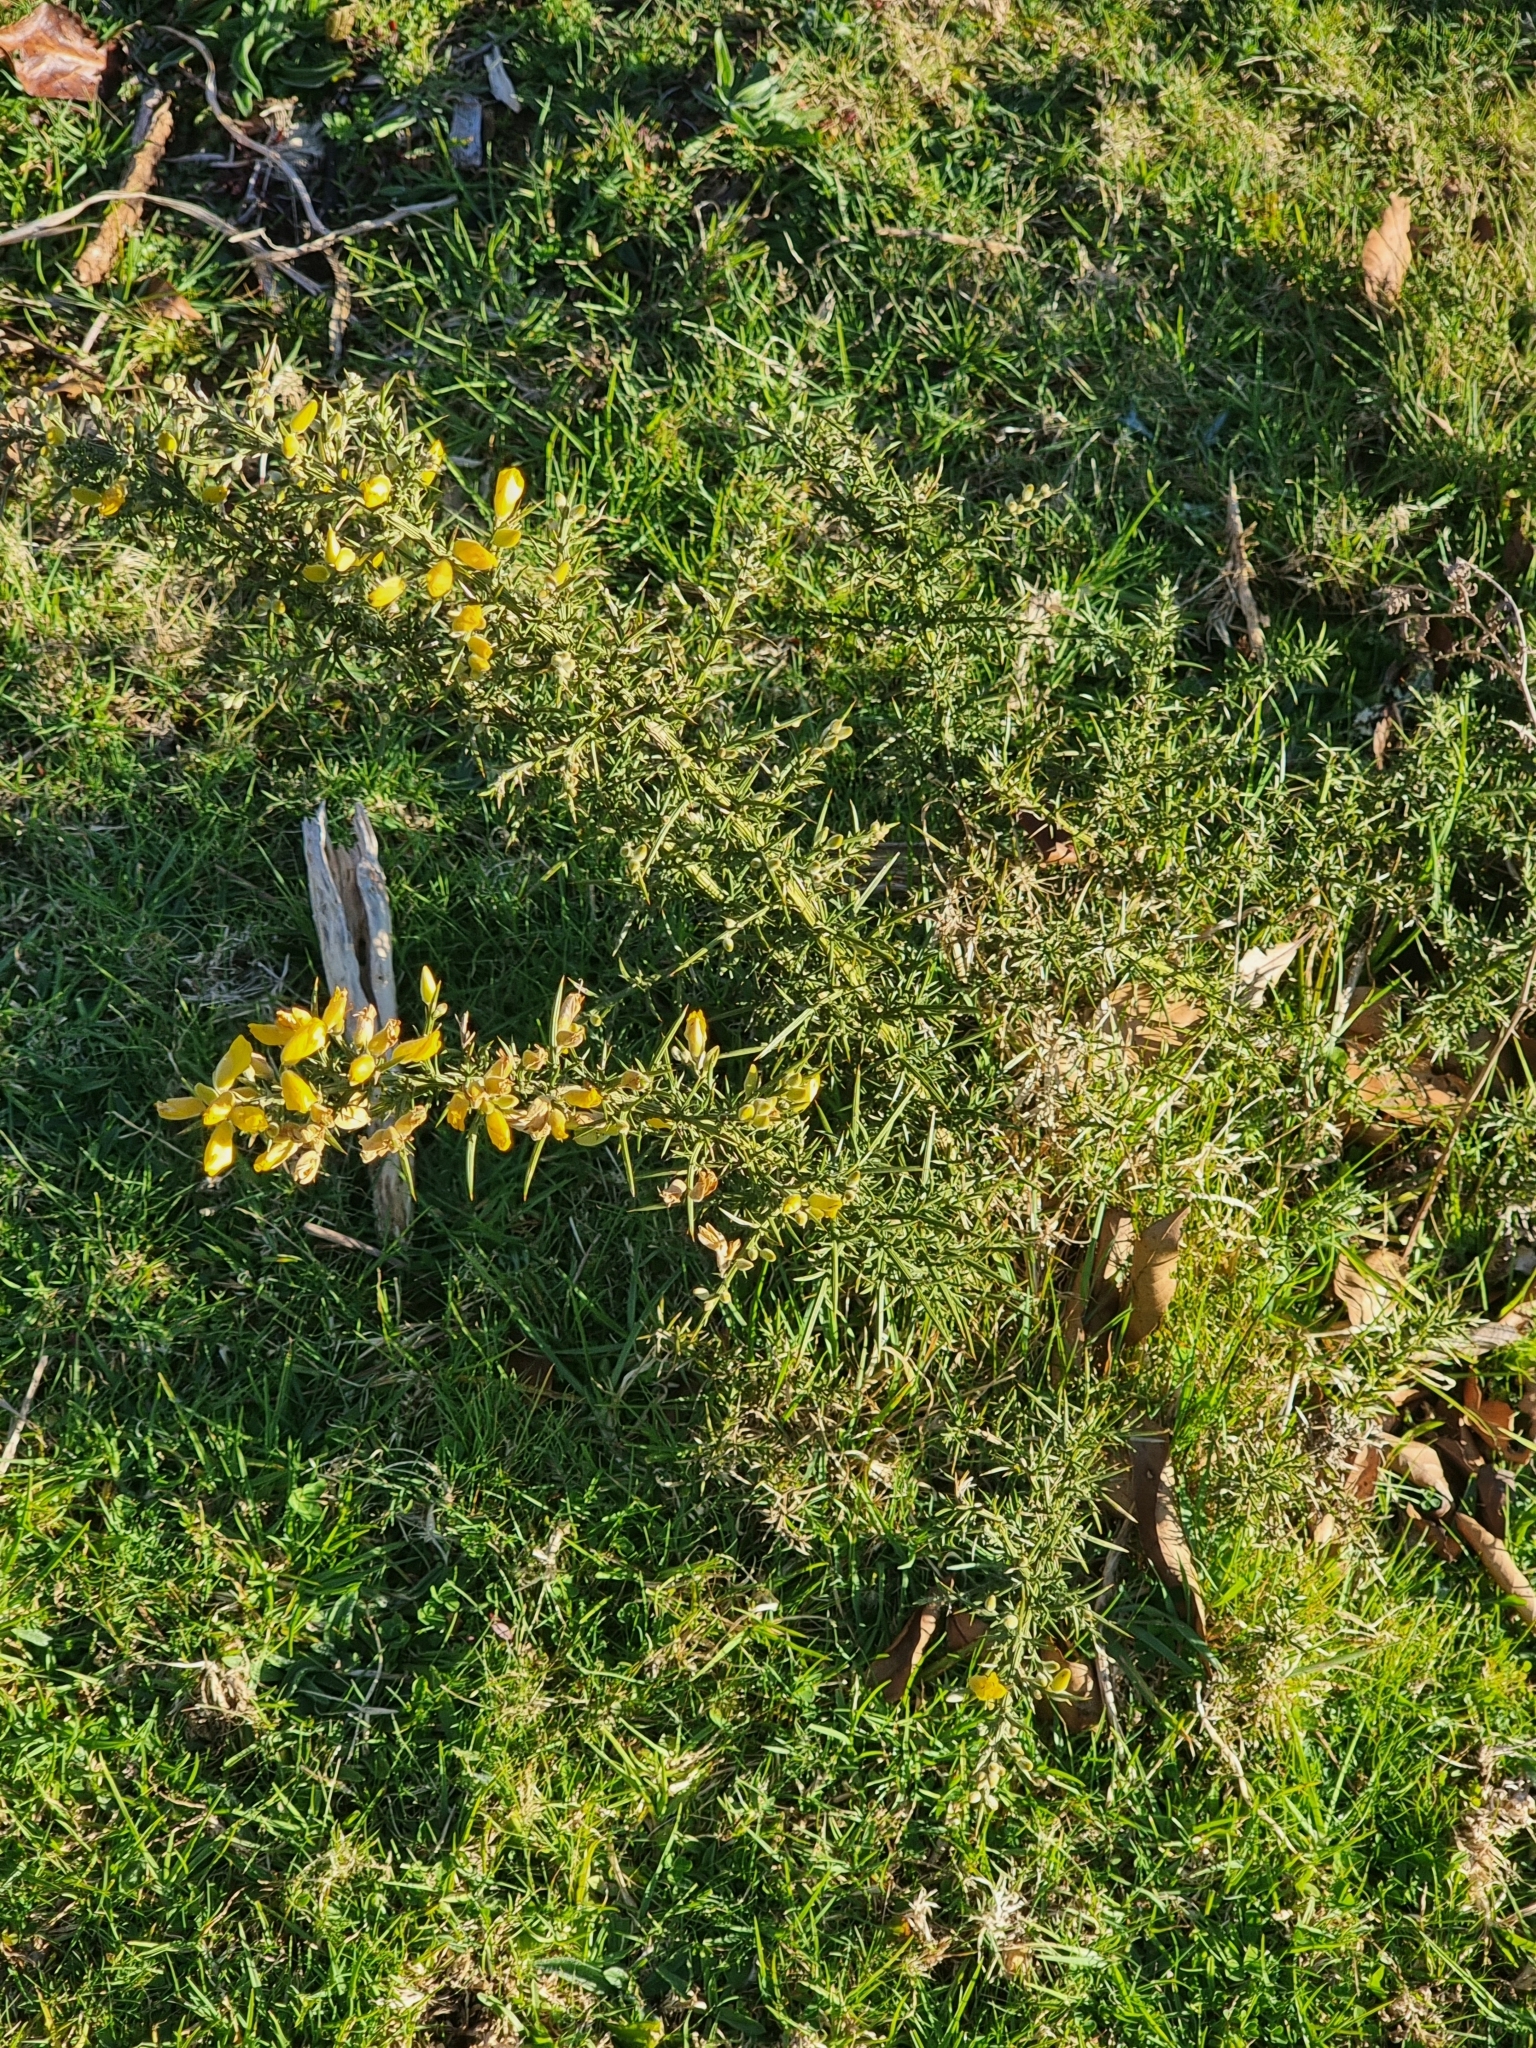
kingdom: Plantae
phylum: Tracheophyta
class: Magnoliopsida
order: Fabales
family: Fabaceae
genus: Ulex
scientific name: Ulex europaeus
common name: Common gorse
